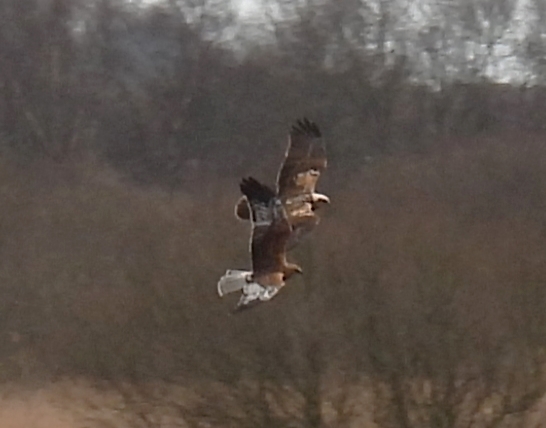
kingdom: Animalia
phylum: Chordata
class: Aves
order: Accipitriformes
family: Accipitridae
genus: Circus
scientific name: Circus aeruginosus
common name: Western marsh harrier
